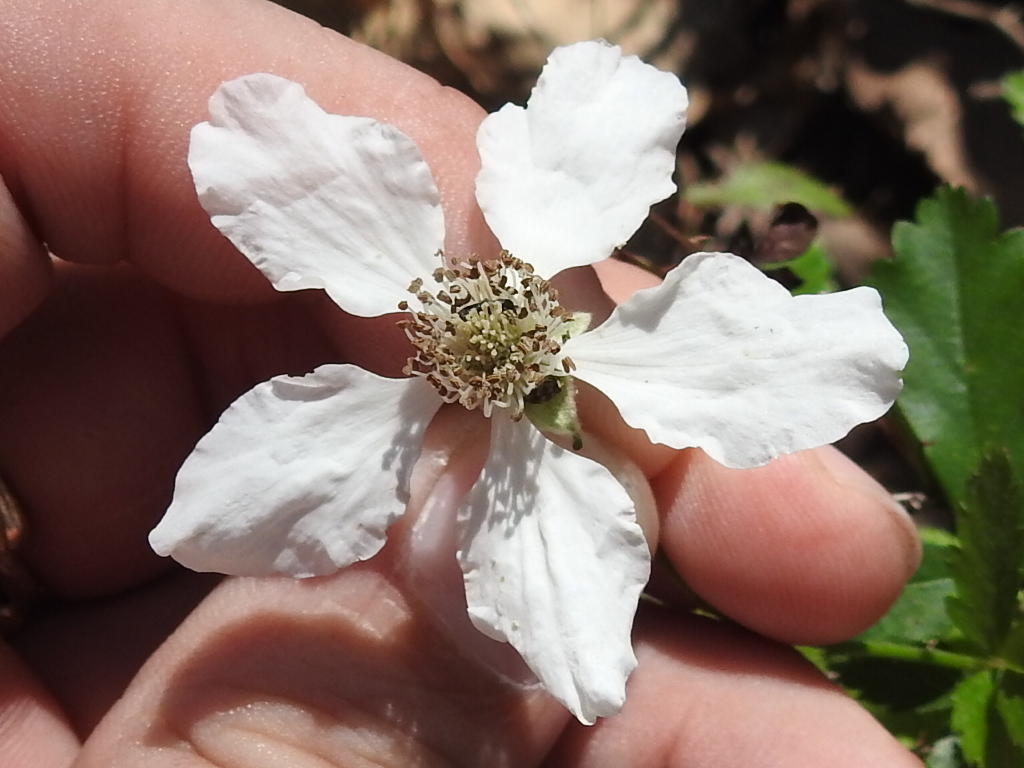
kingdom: Plantae
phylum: Tracheophyta
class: Magnoliopsida
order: Rosales
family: Rosaceae
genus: Rubus
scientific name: Rubus trivialis
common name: Southern dewberry
